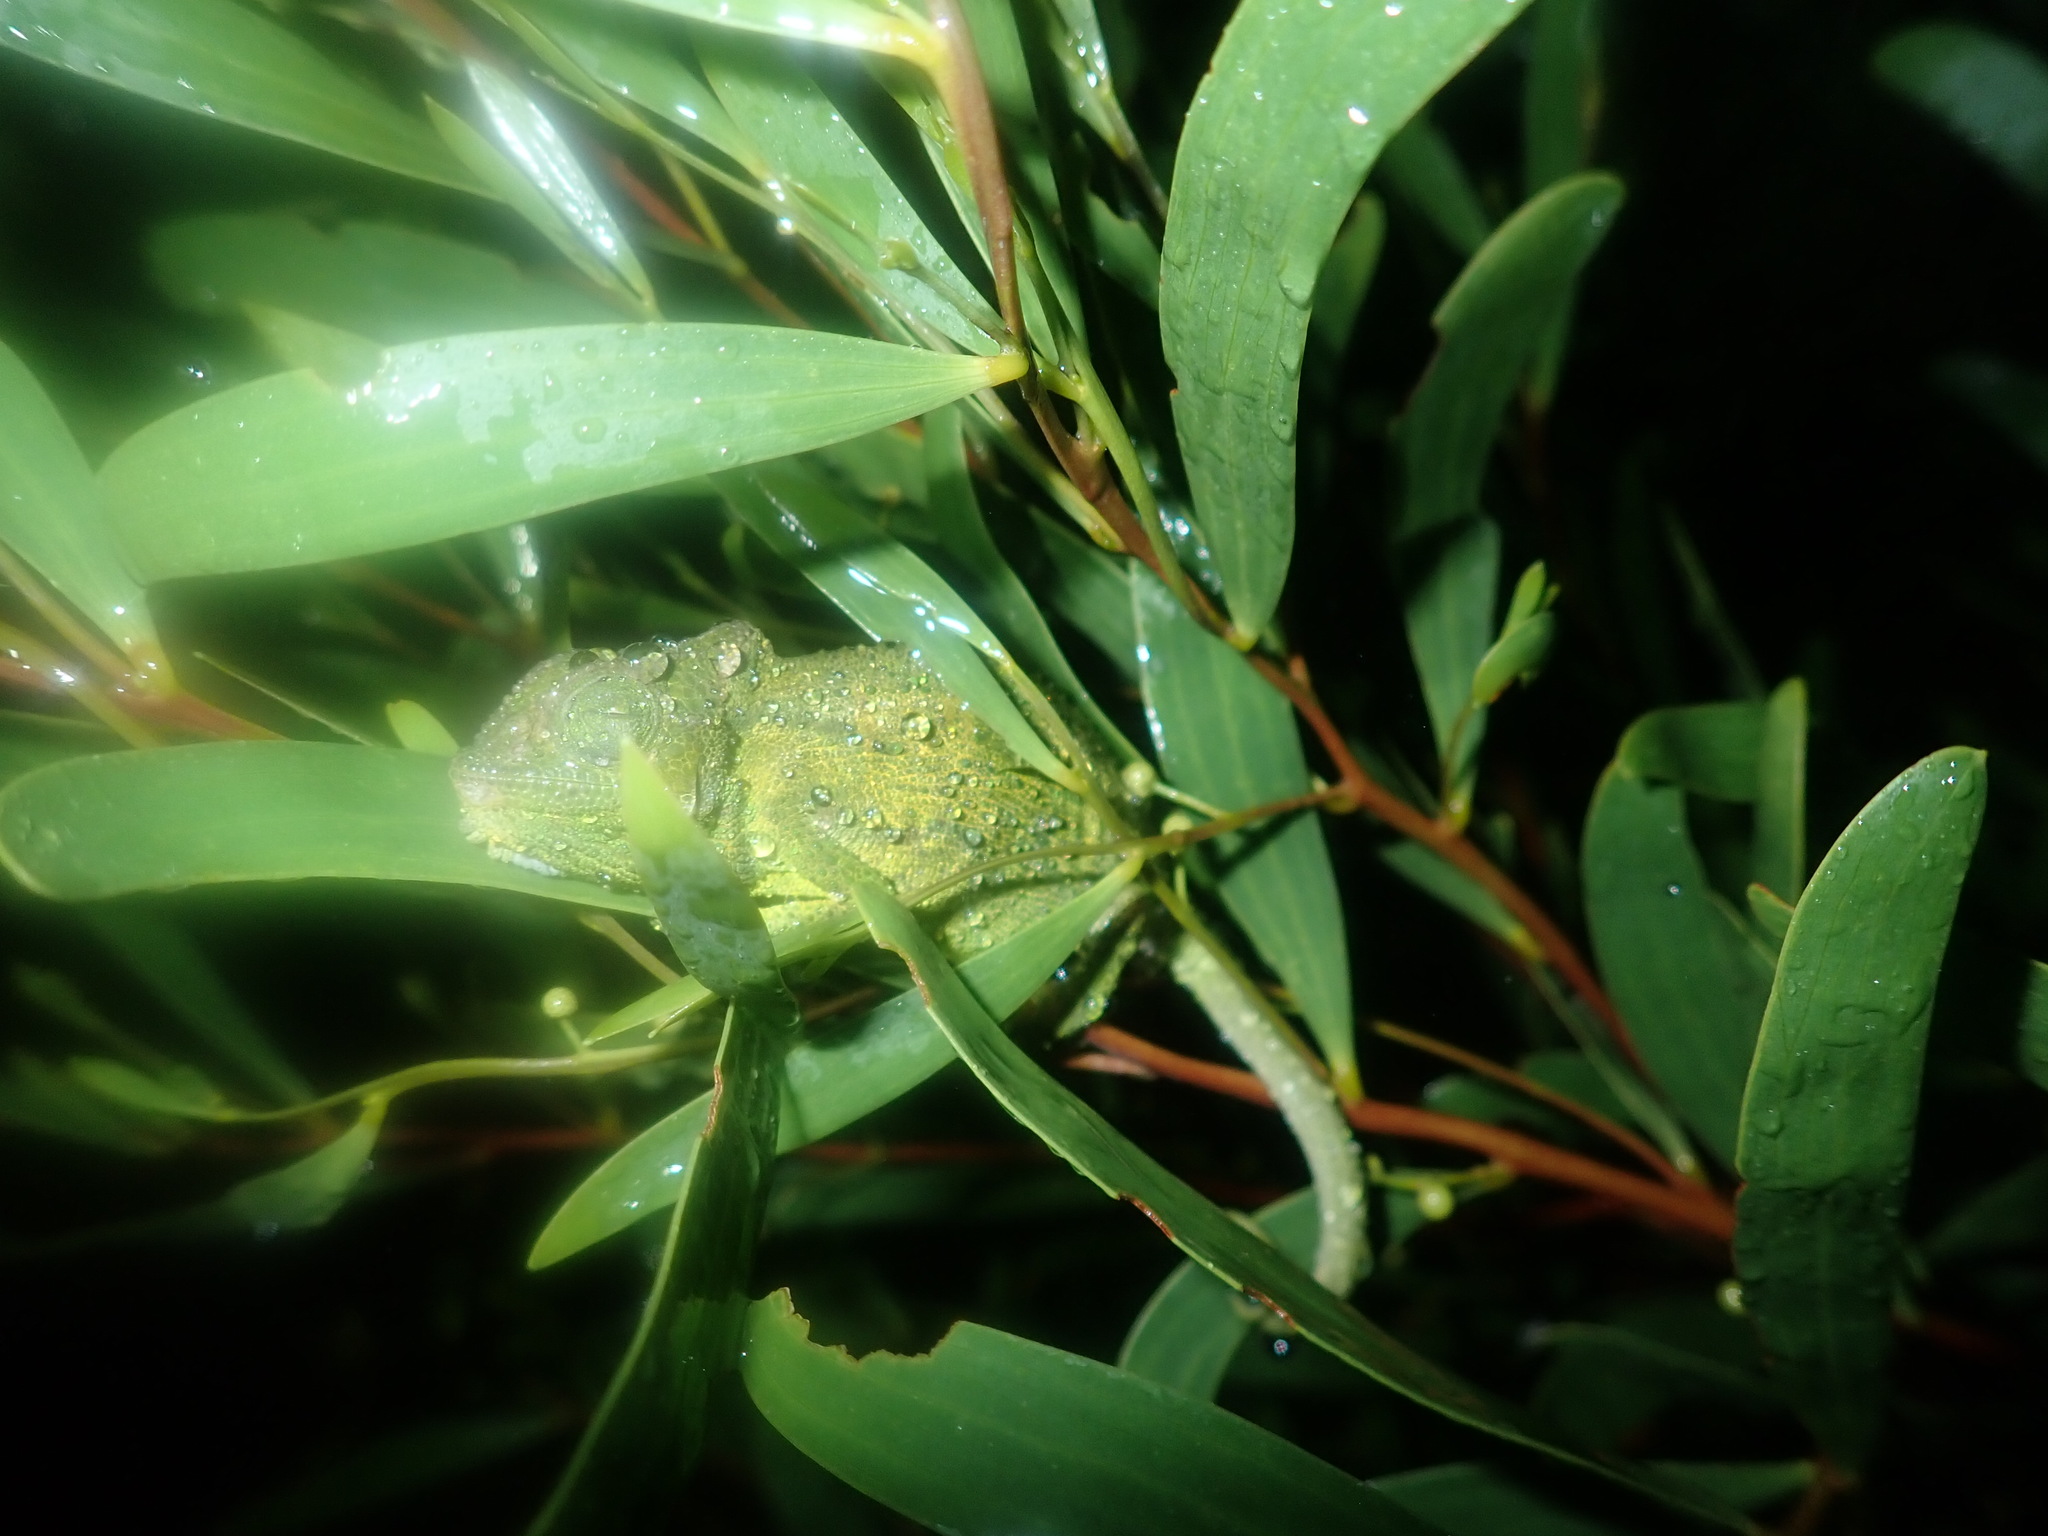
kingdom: Animalia
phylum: Chordata
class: Squamata
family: Chamaeleonidae
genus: Bradypodion
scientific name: Bradypodion pumilum
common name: Cape dwarf chameleon
